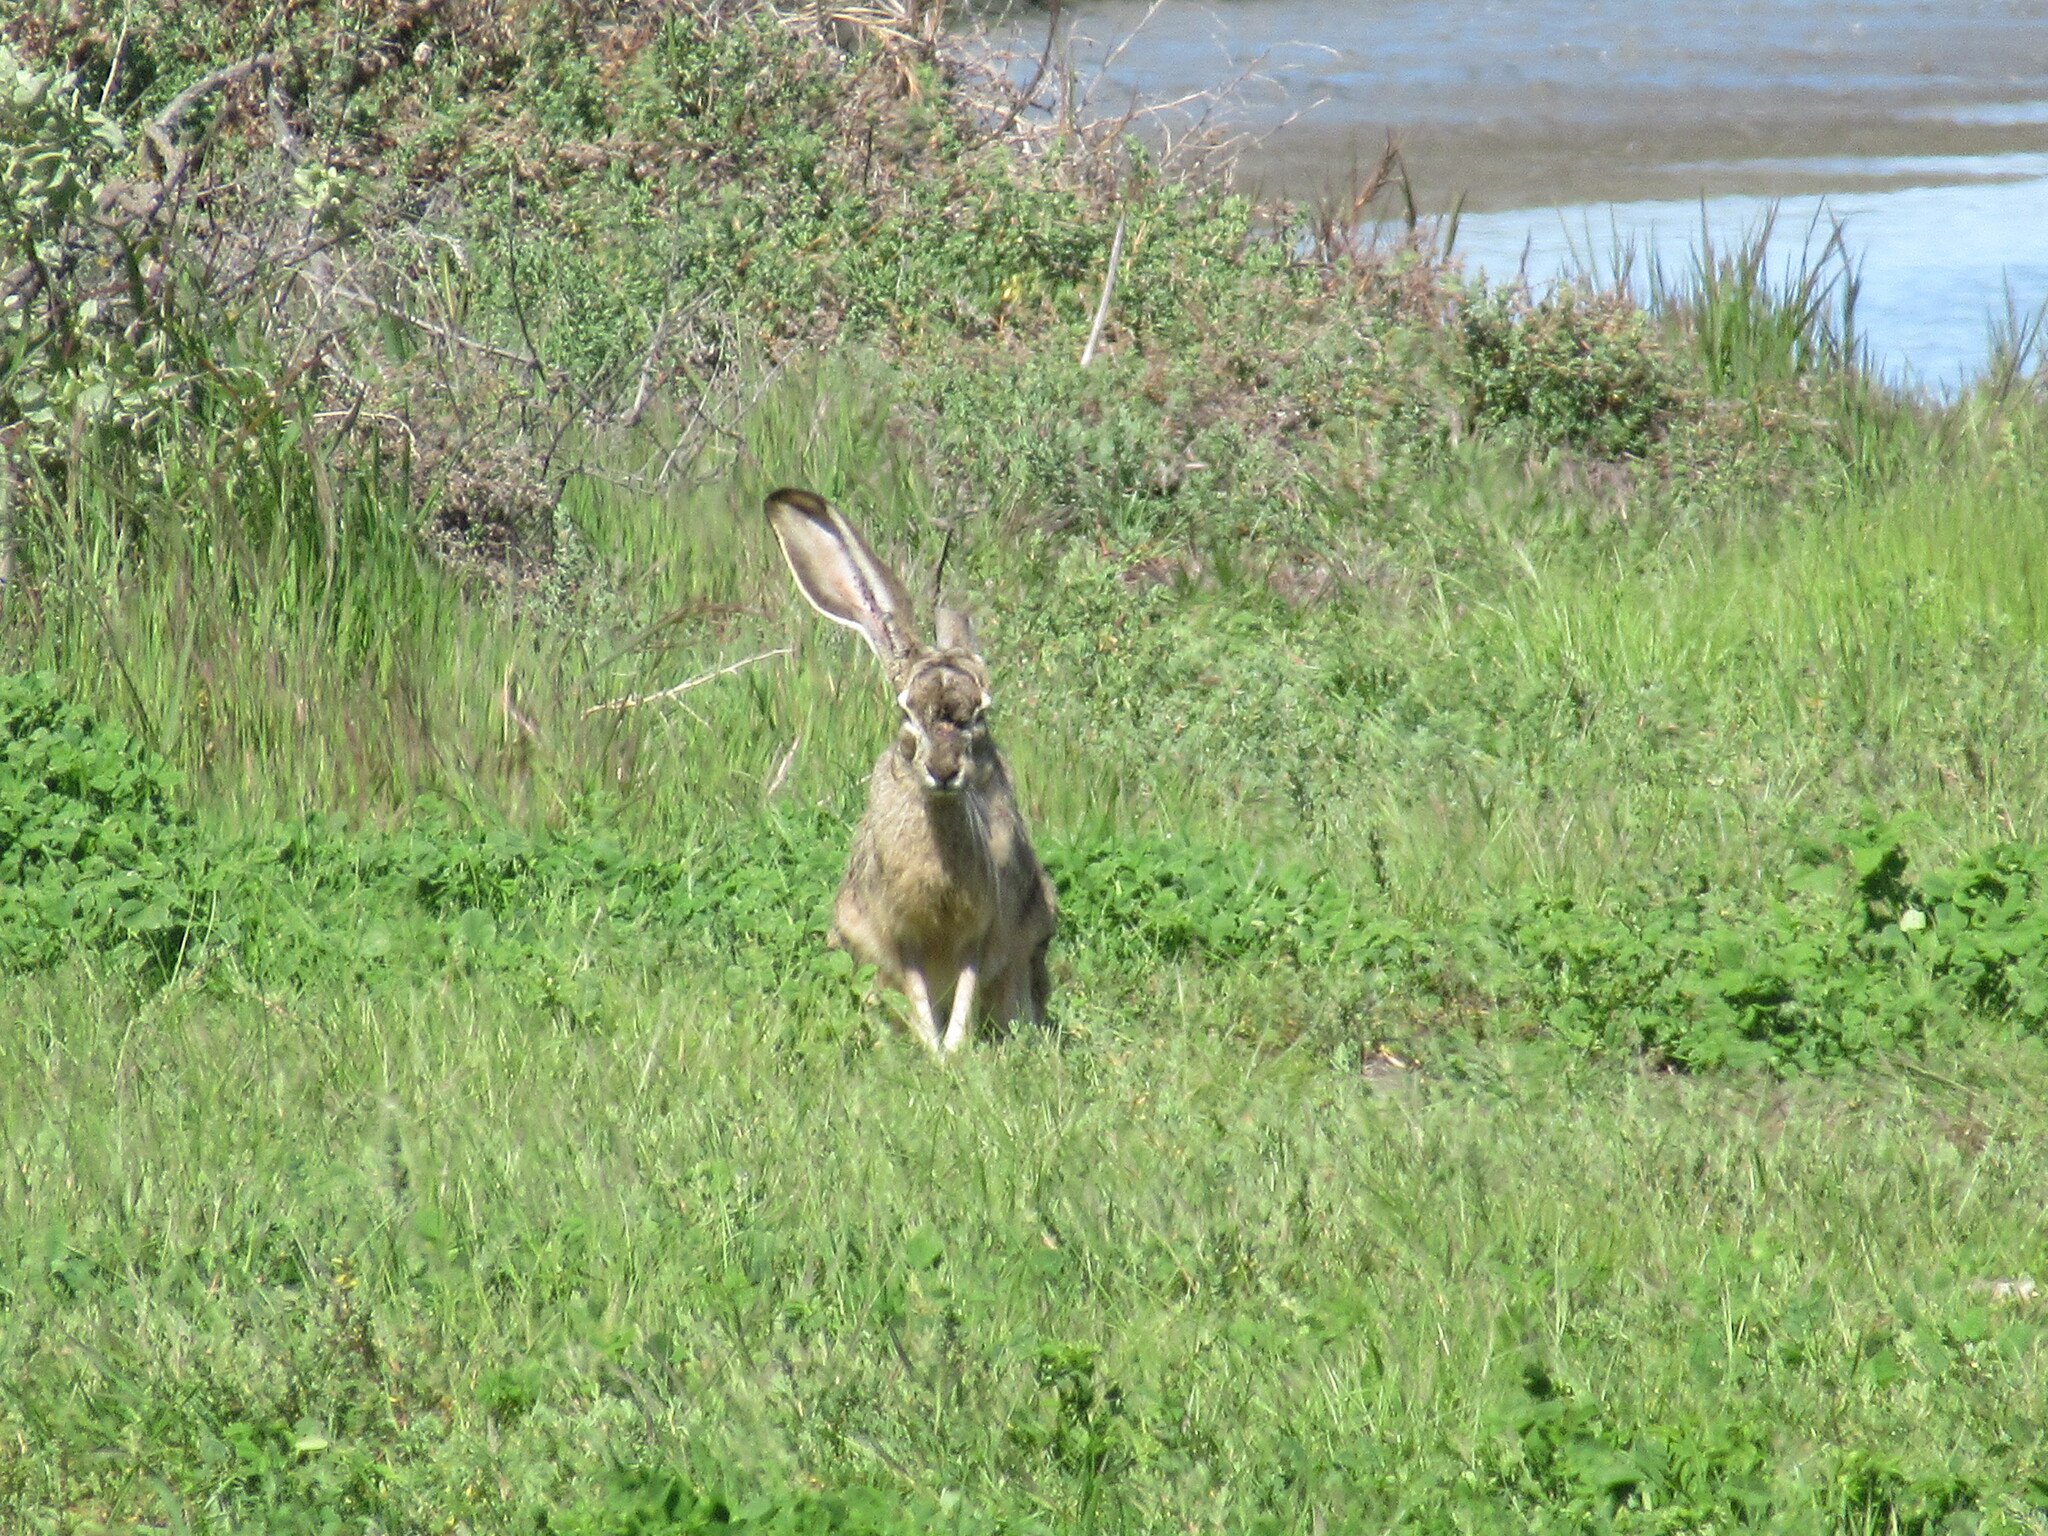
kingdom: Animalia
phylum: Chordata
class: Mammalia
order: Lagomorpha
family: Leporidae
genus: Lepus
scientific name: Lepus californicus
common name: Black-tailed jackrabbit
